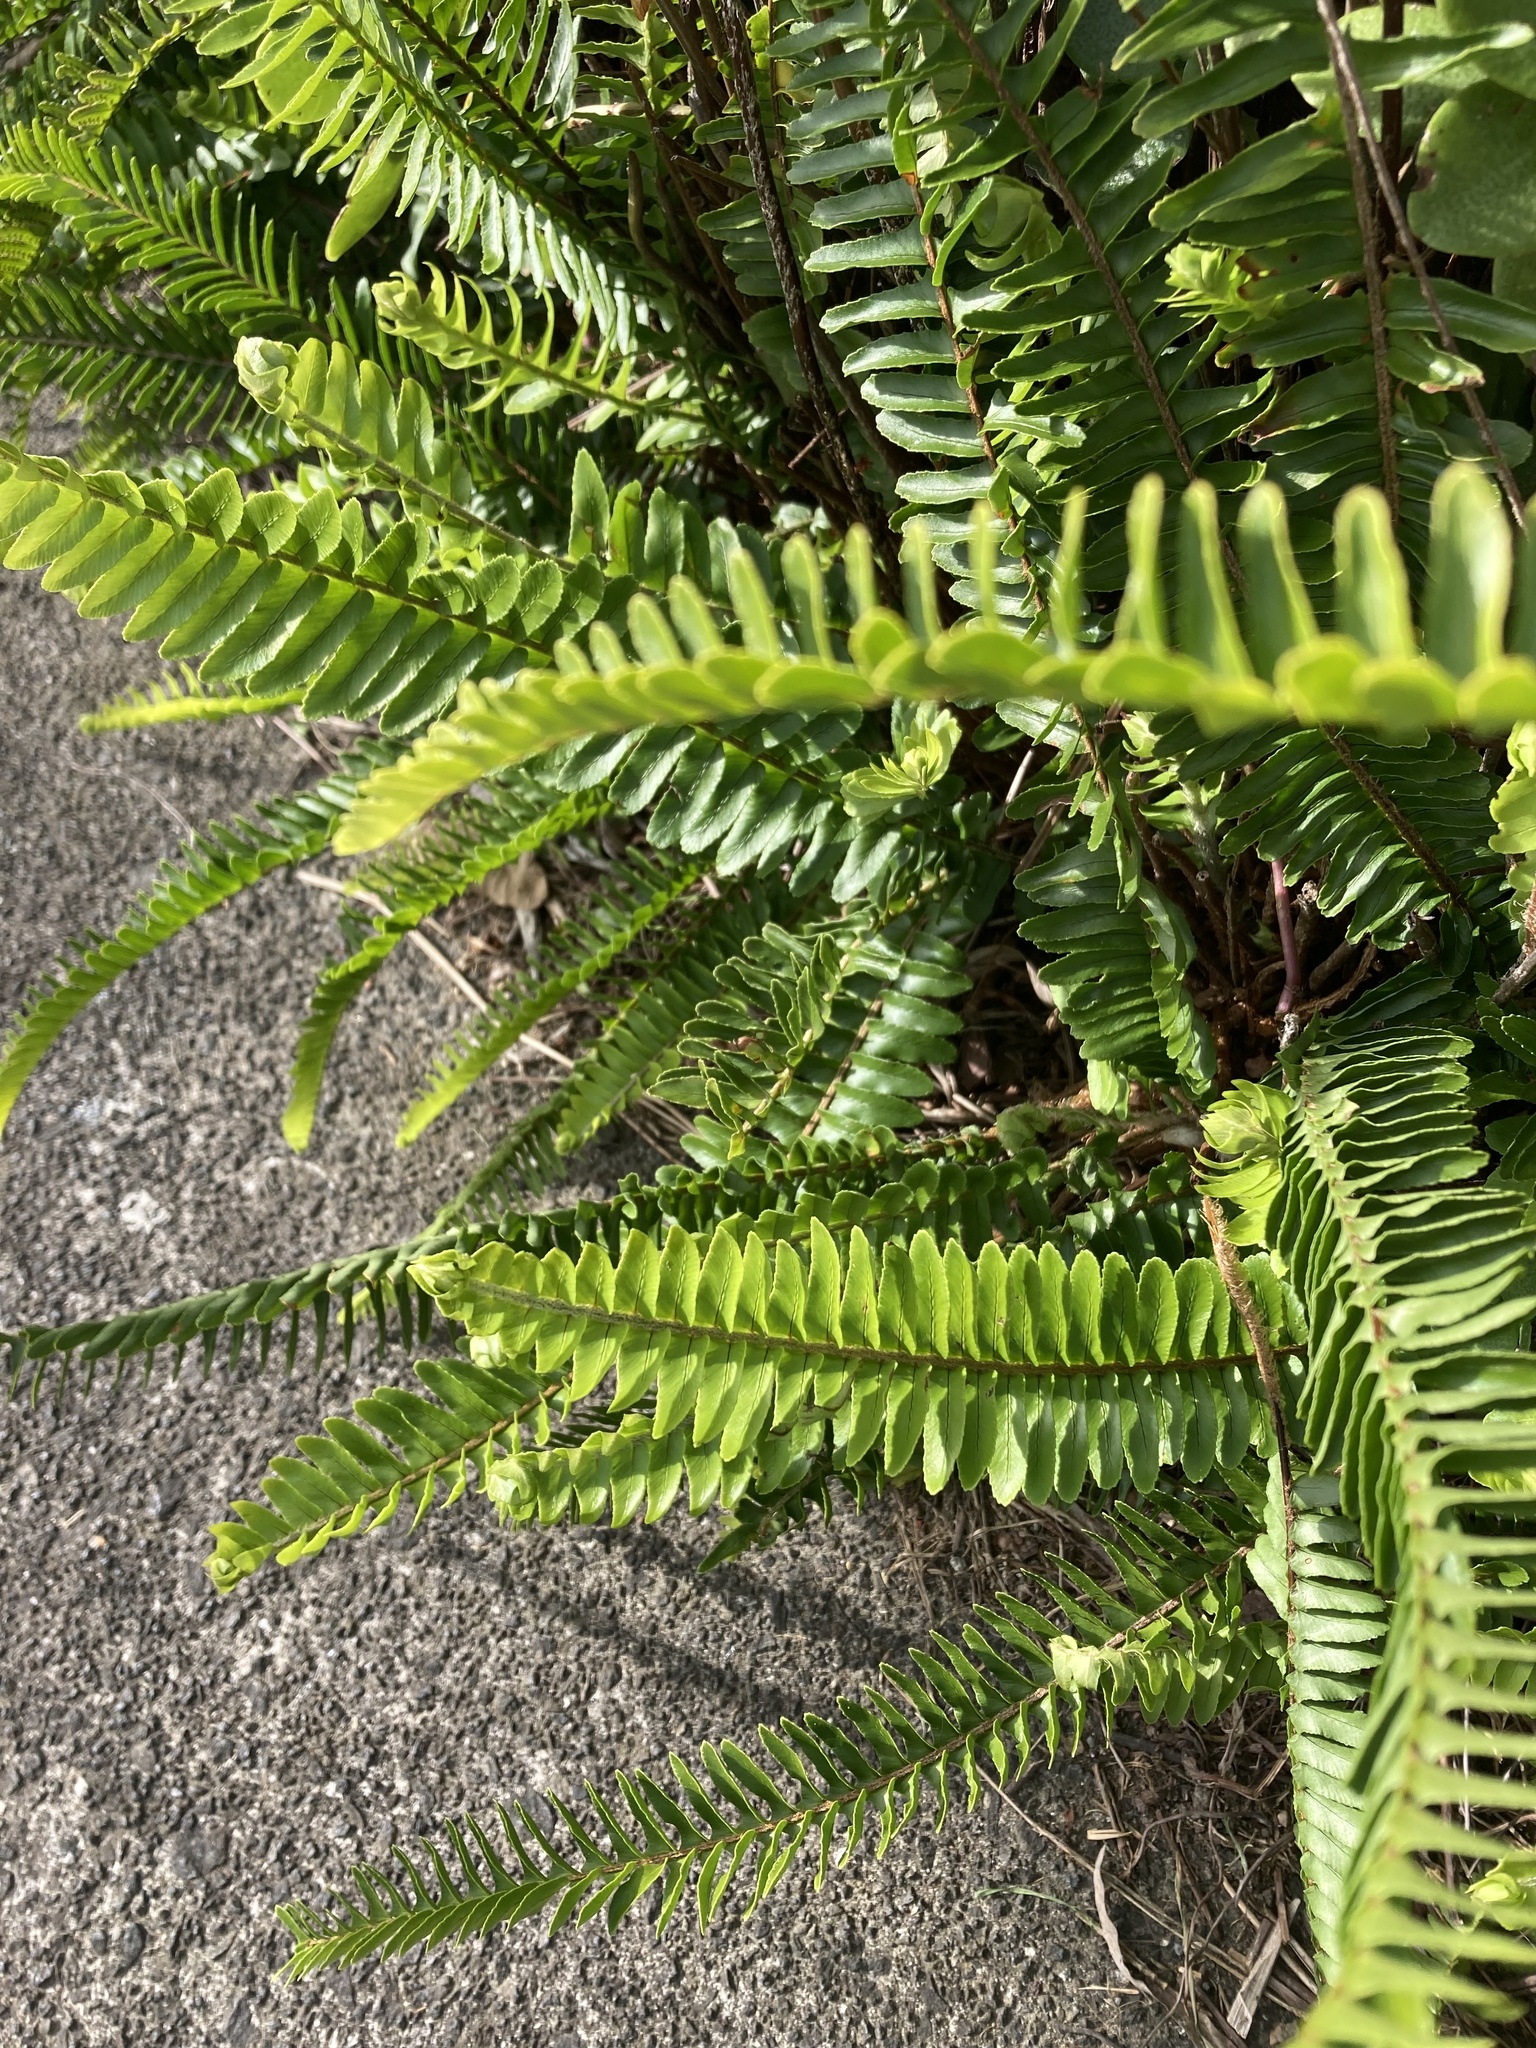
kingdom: Plantae
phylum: Tracheophyta
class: Polypodiopsida
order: Polypodiales
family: Nephrolepidaceae
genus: Nephrolepis
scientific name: Nephrolepis cordifolia
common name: Narrow swordfern
